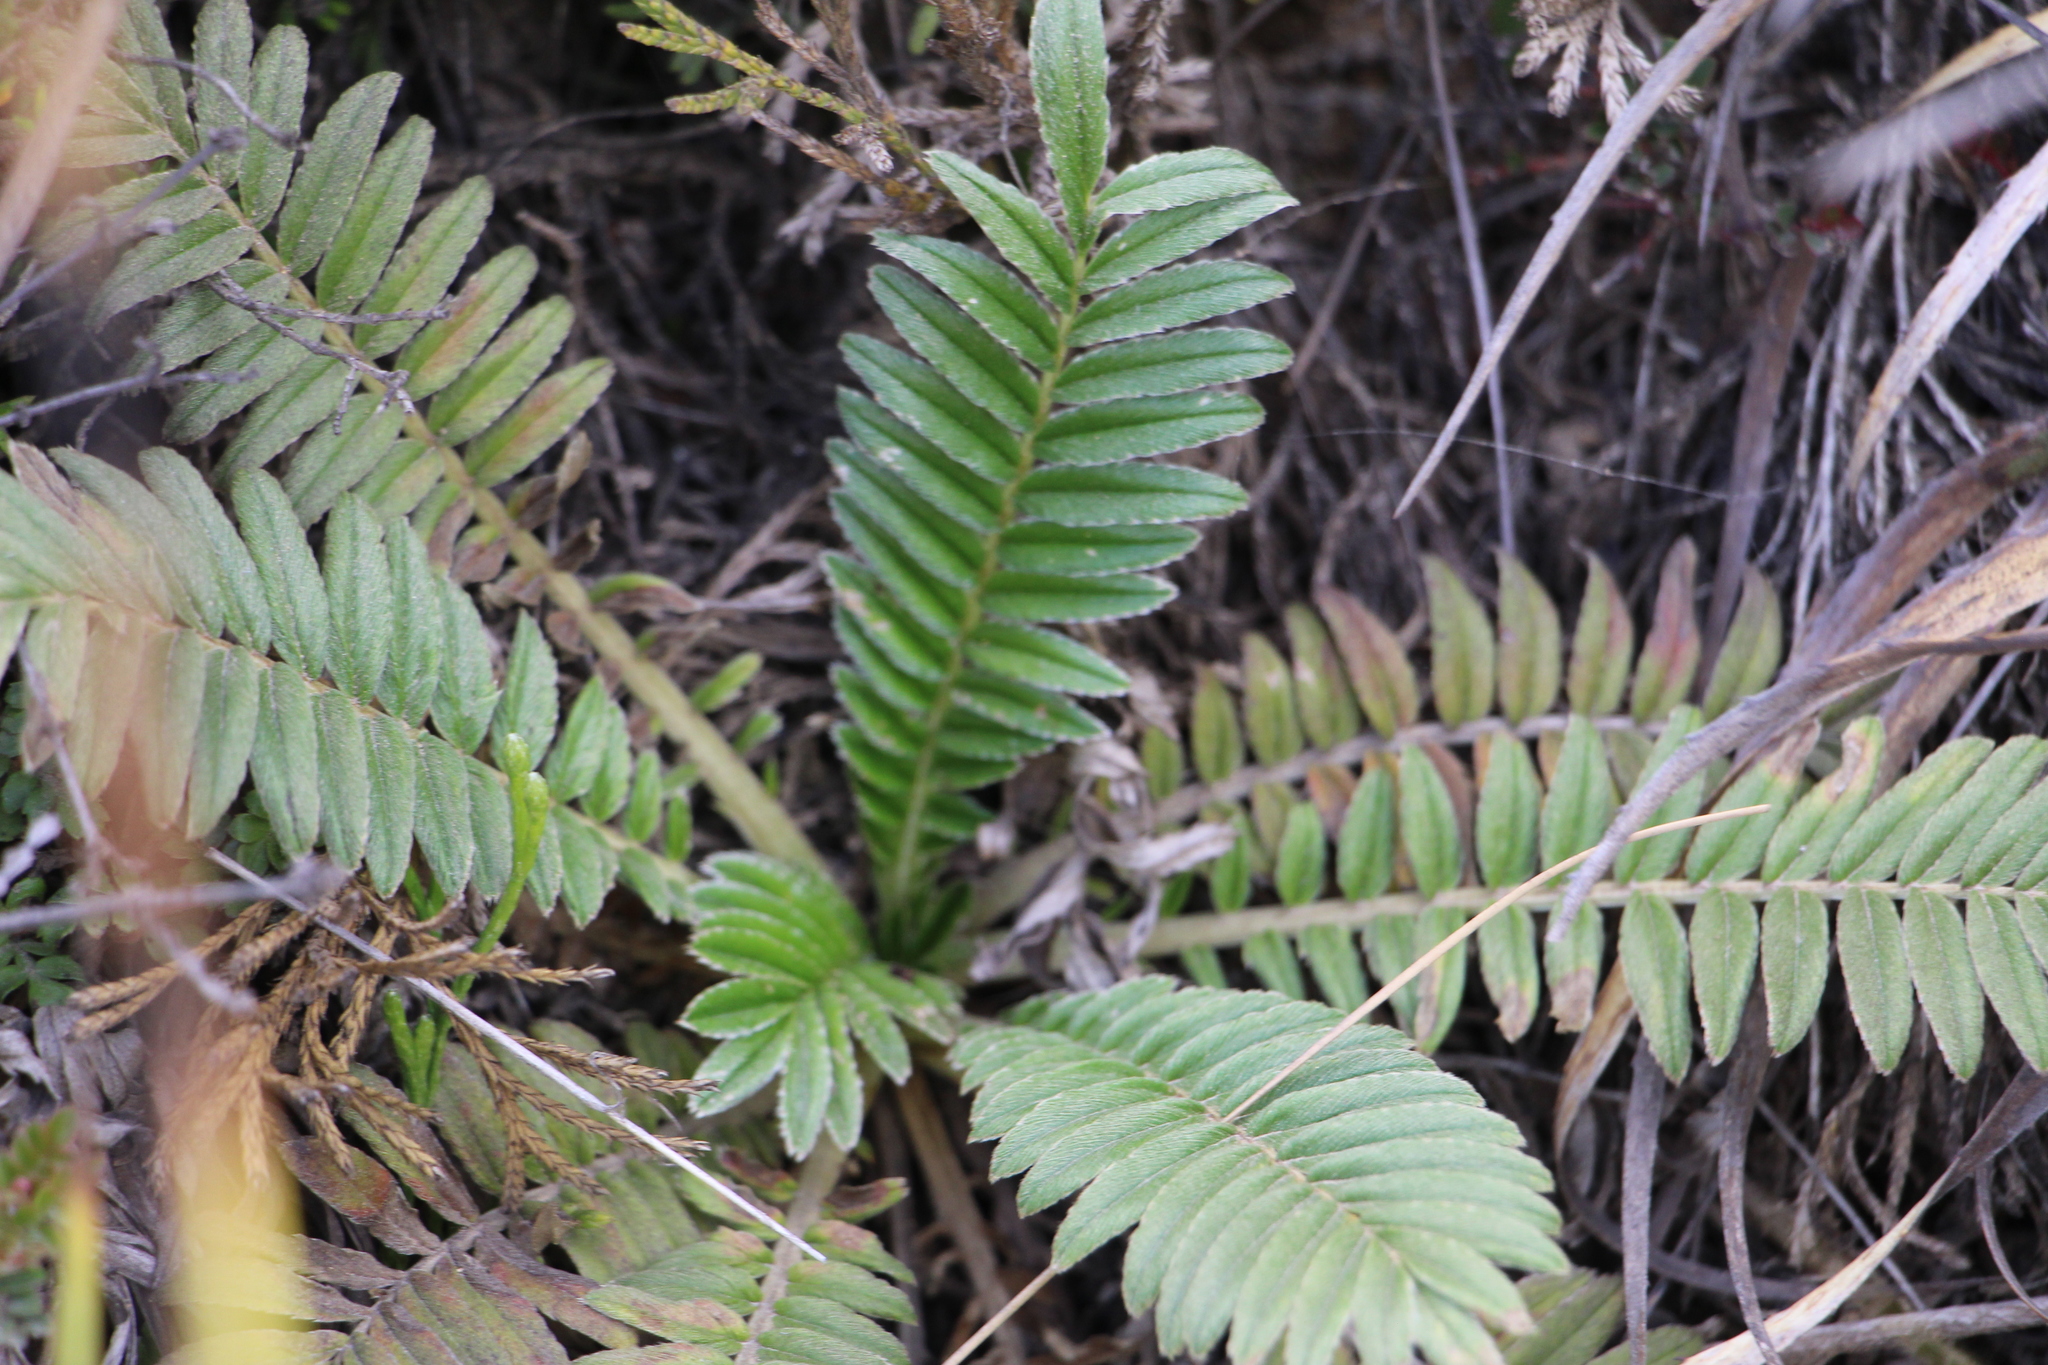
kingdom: Plantae
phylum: Tracheophyta
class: Magnoliopsida
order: Rosales
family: Rosaceae
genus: Acaena
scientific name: Acaena cylindristachya
